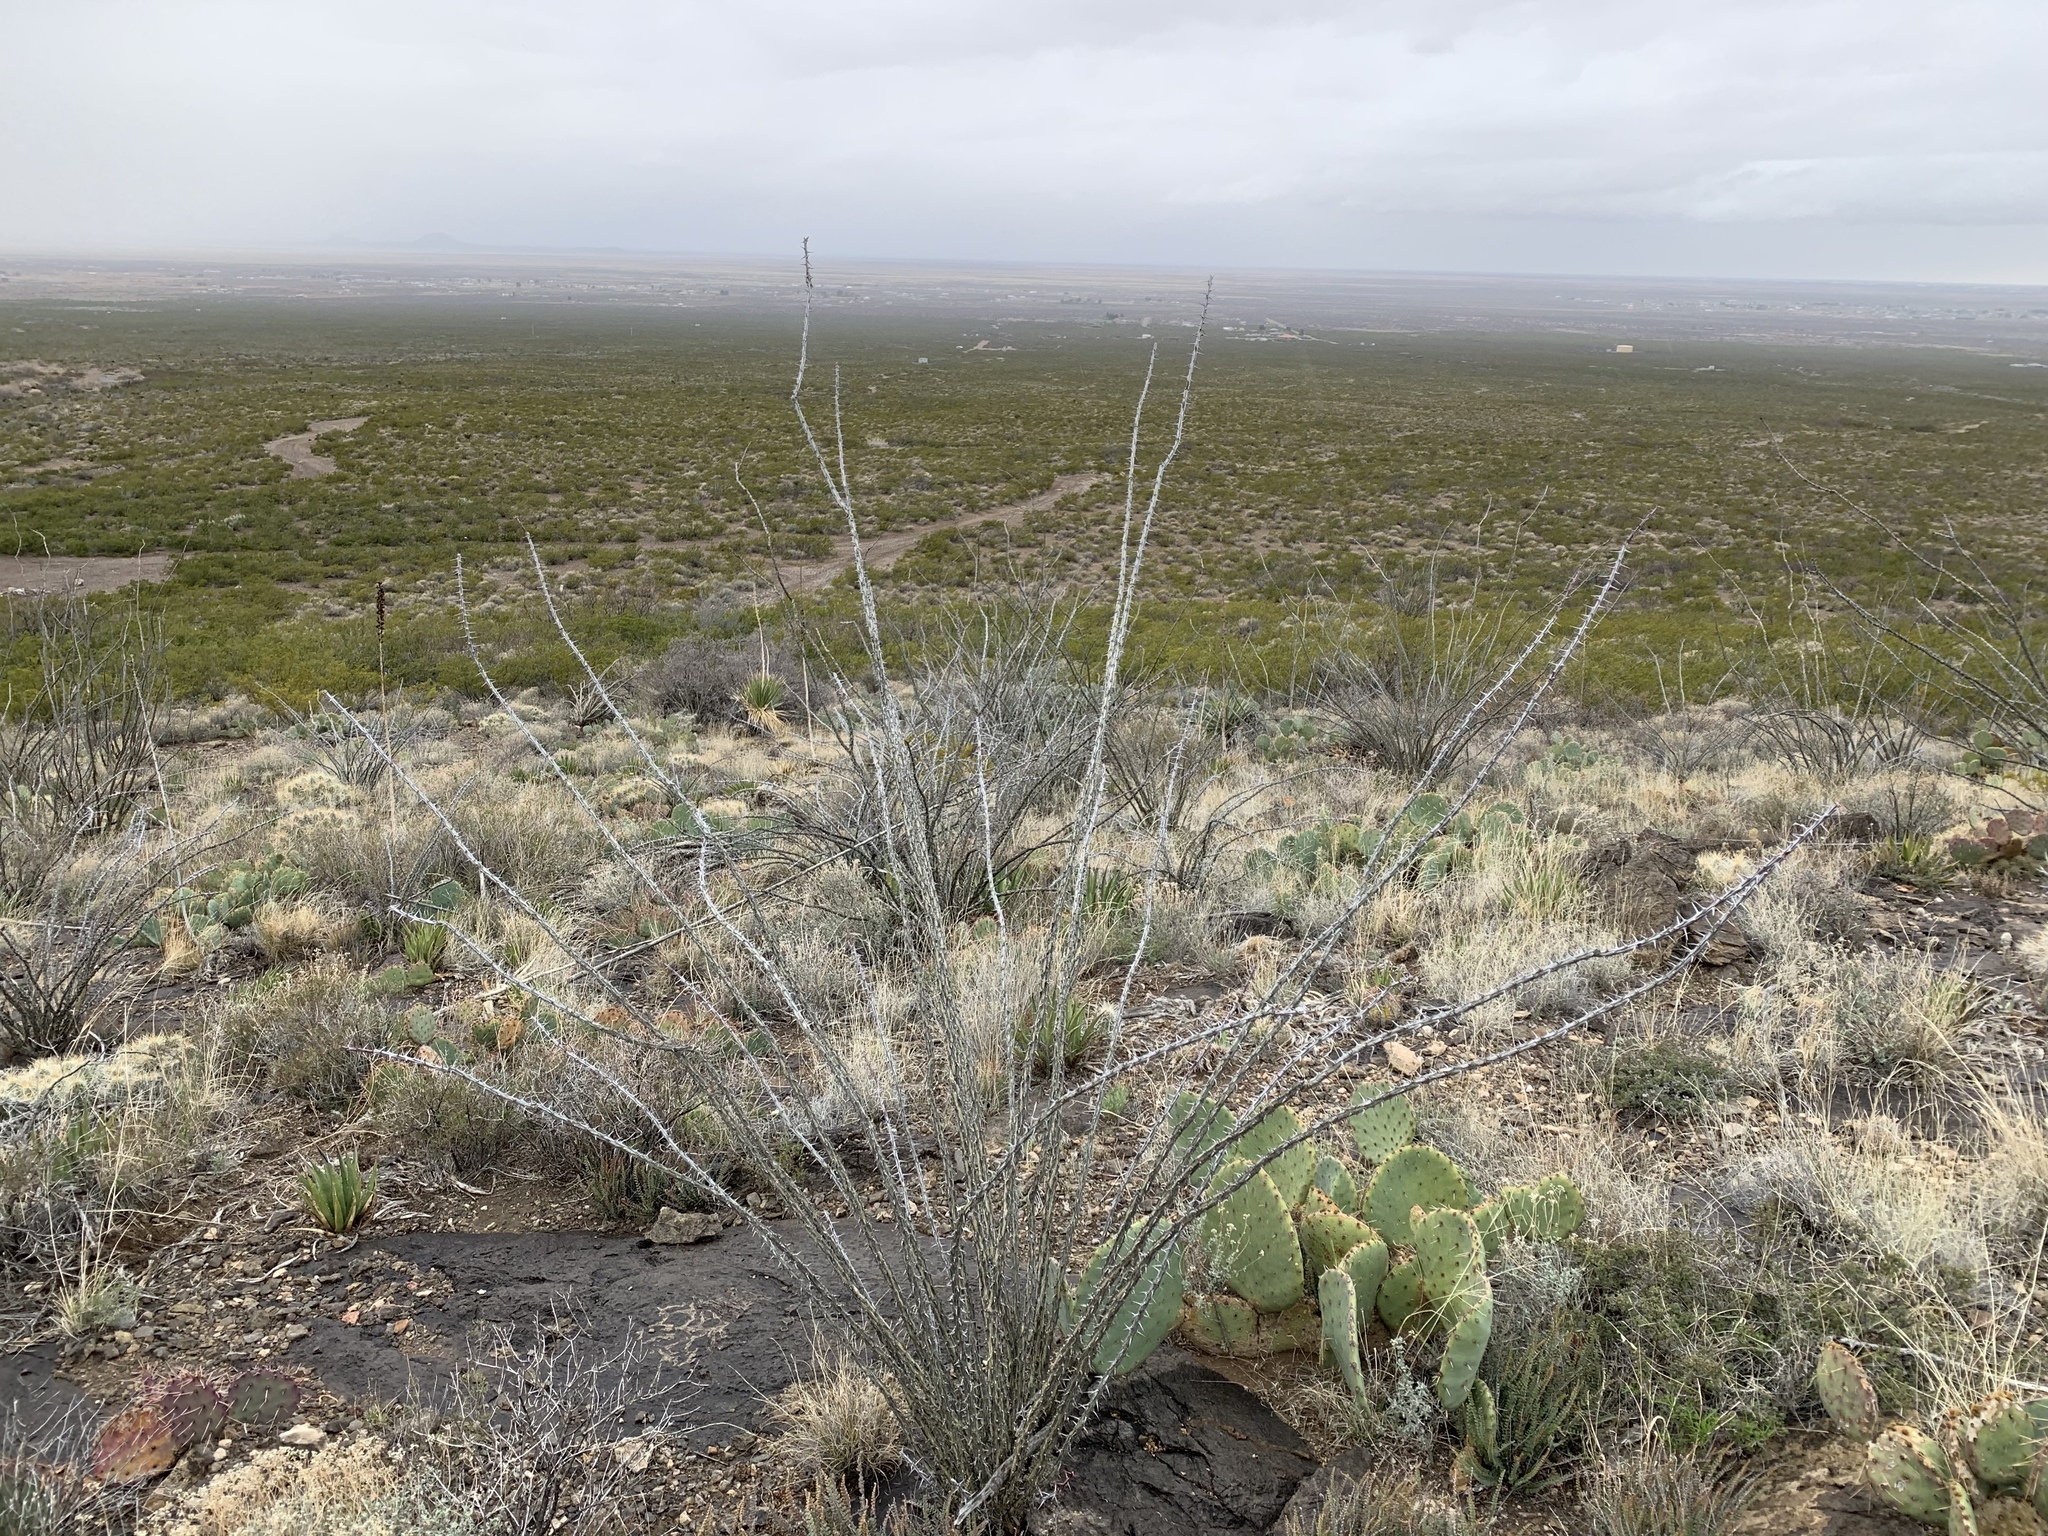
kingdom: Plantae
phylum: Tracheophyta
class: Magnoliopsida
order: Ericales
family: Fouquieriaceae
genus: Fouquieria
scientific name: Fouquieria splendens
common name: Vine-cactus
